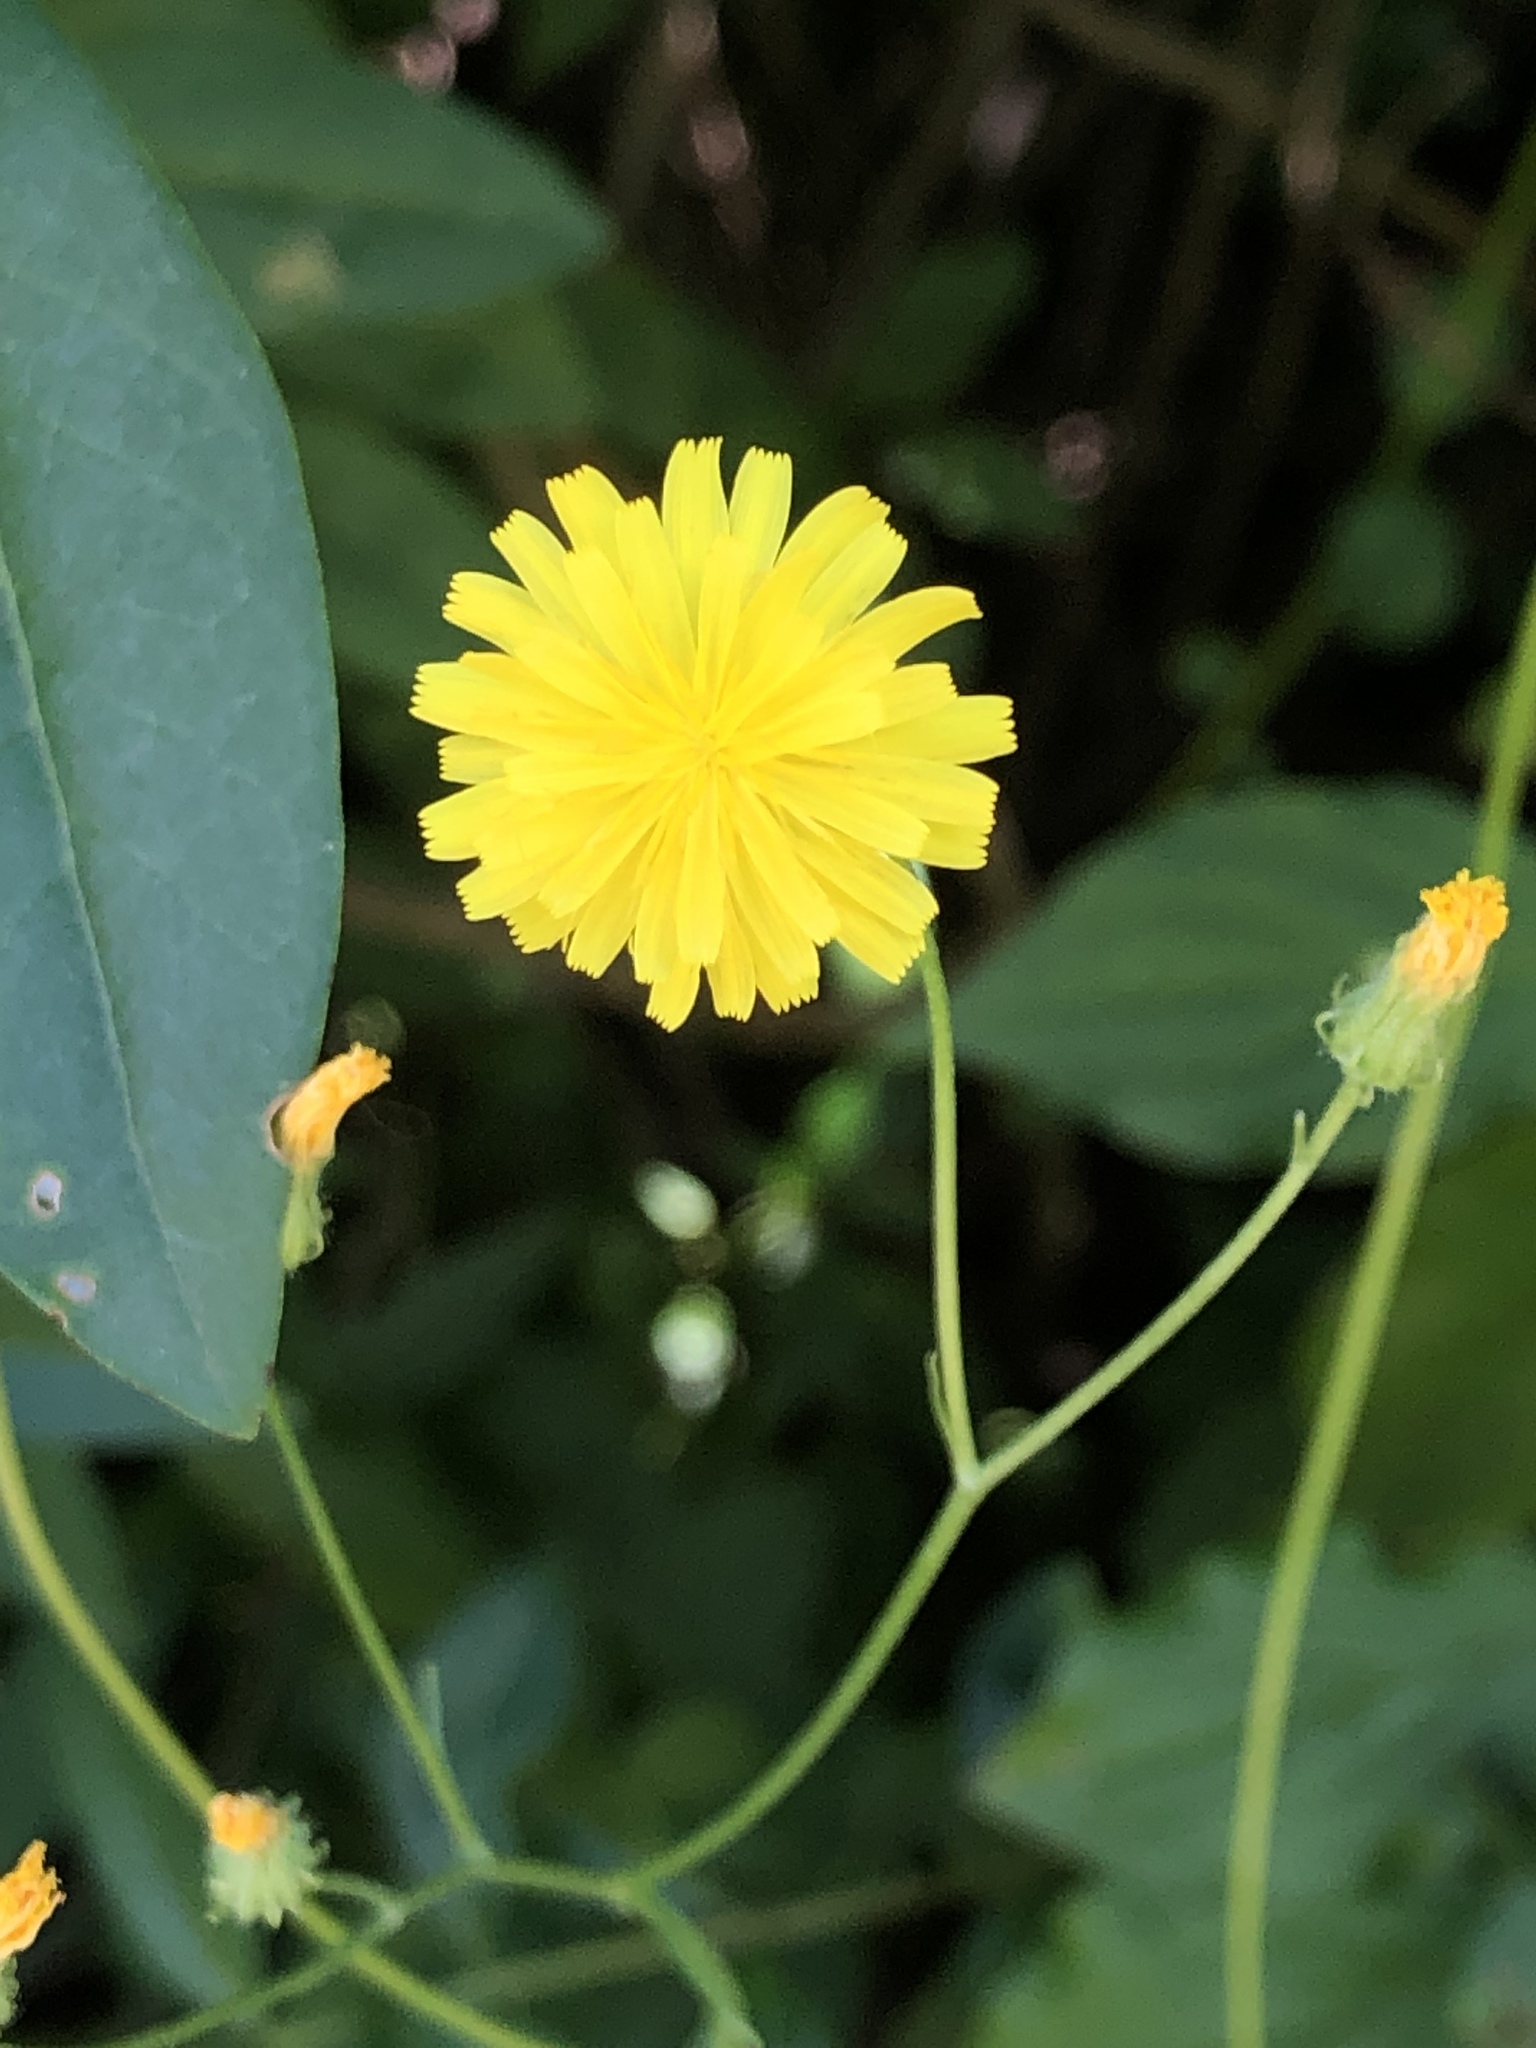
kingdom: Plantae
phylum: Tracheophyta
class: Magnoliopsida
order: Asterales
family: Asteraceae
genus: Lapsana
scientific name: Lapsana communis
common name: Nipplewort
